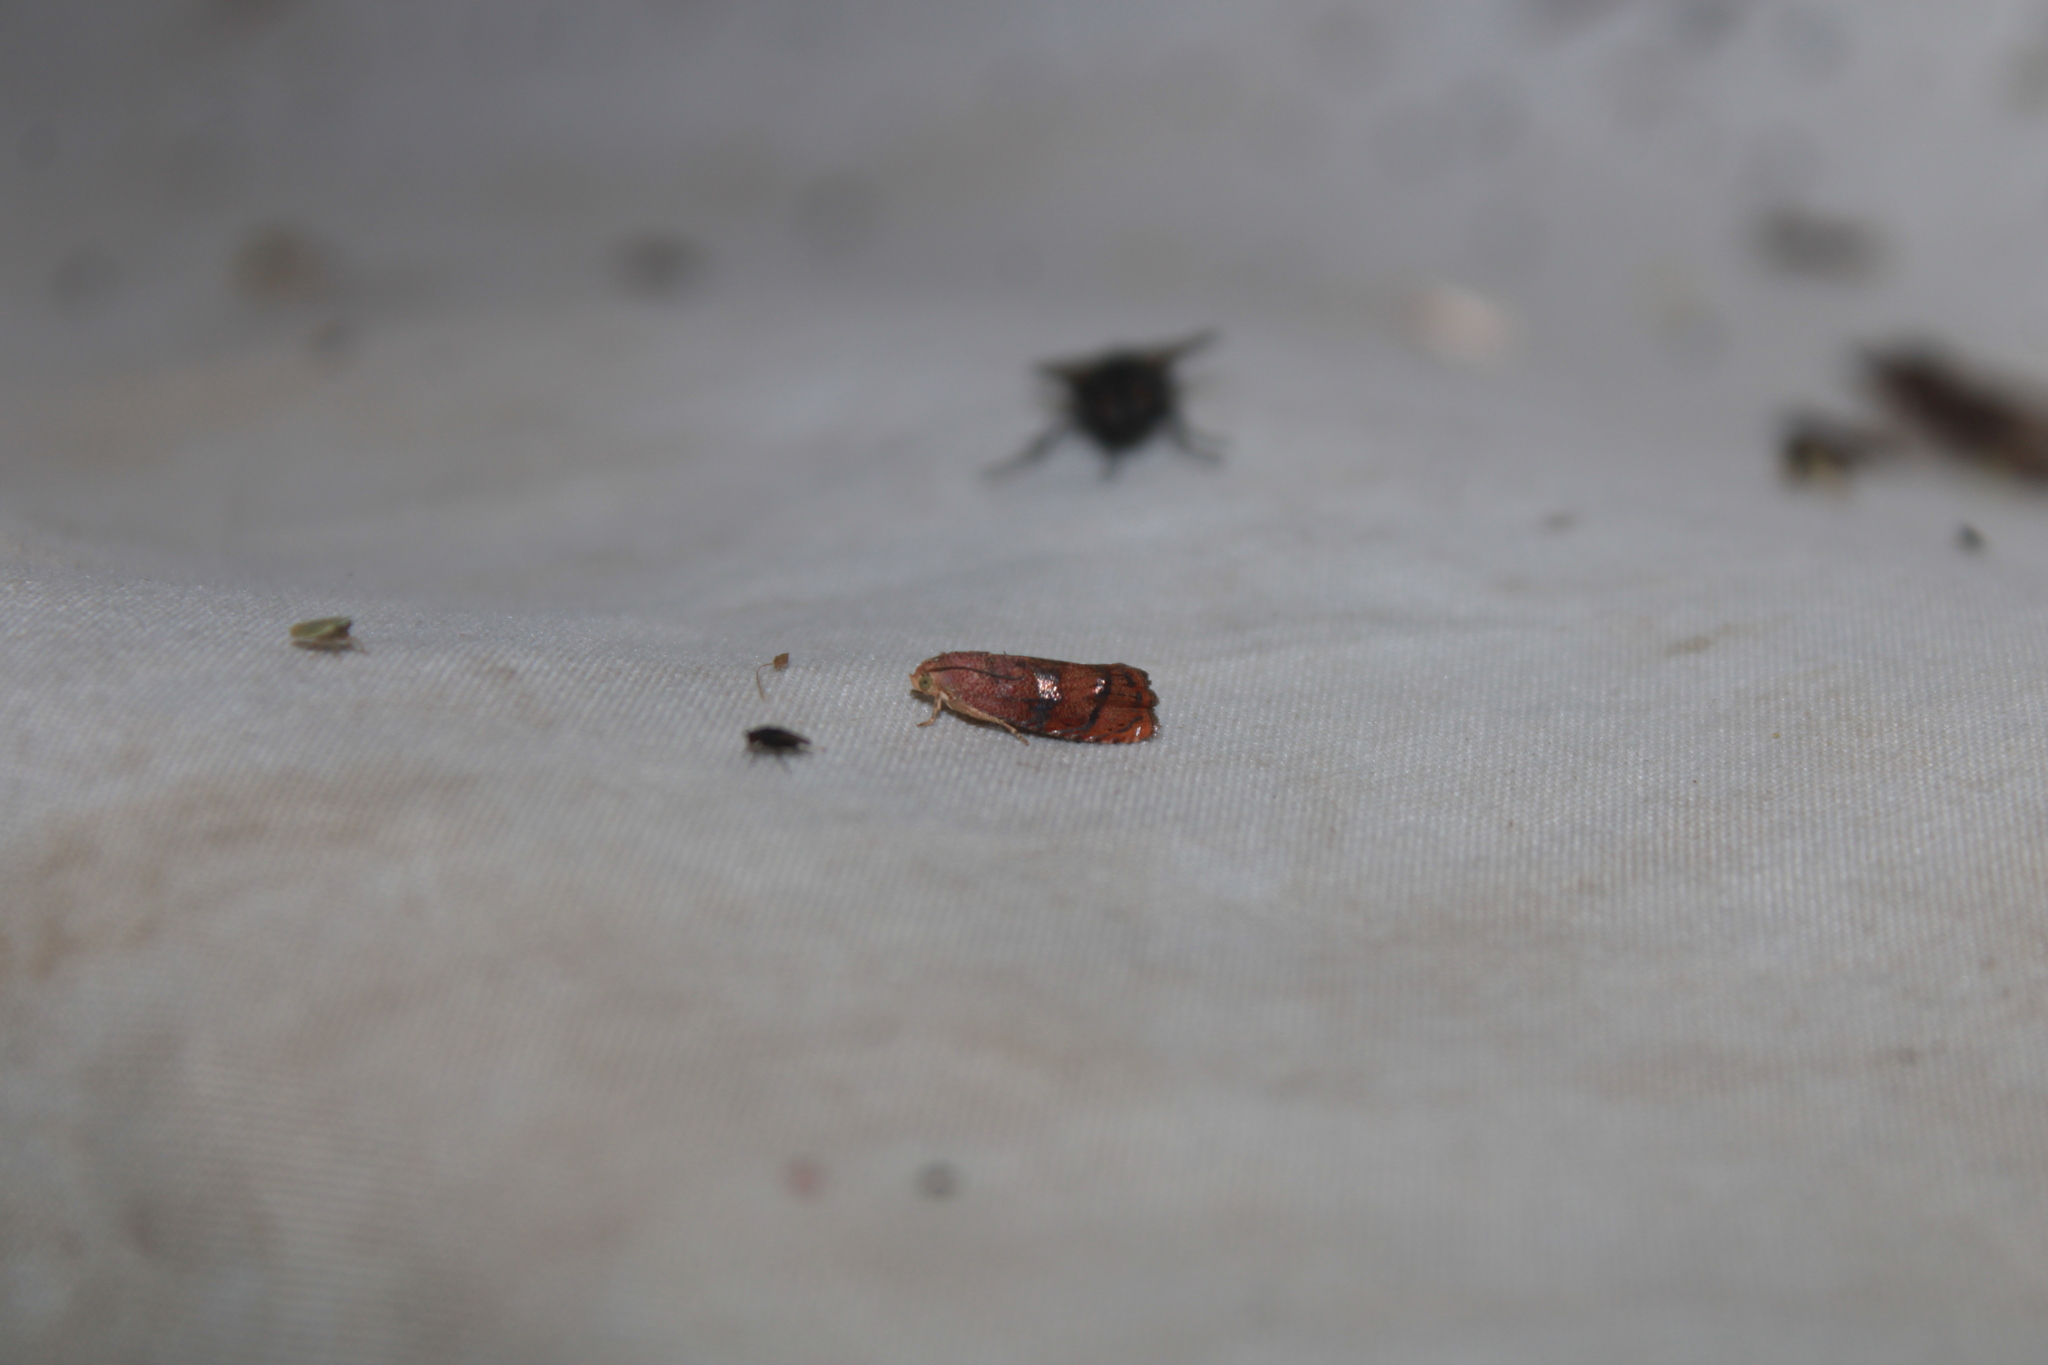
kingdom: Animalia
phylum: Arthropoda
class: Insecta
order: Lepidoptera
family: Tortricidae
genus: Cydia
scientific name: Cydia latiferreana
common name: Filbertworm moth
